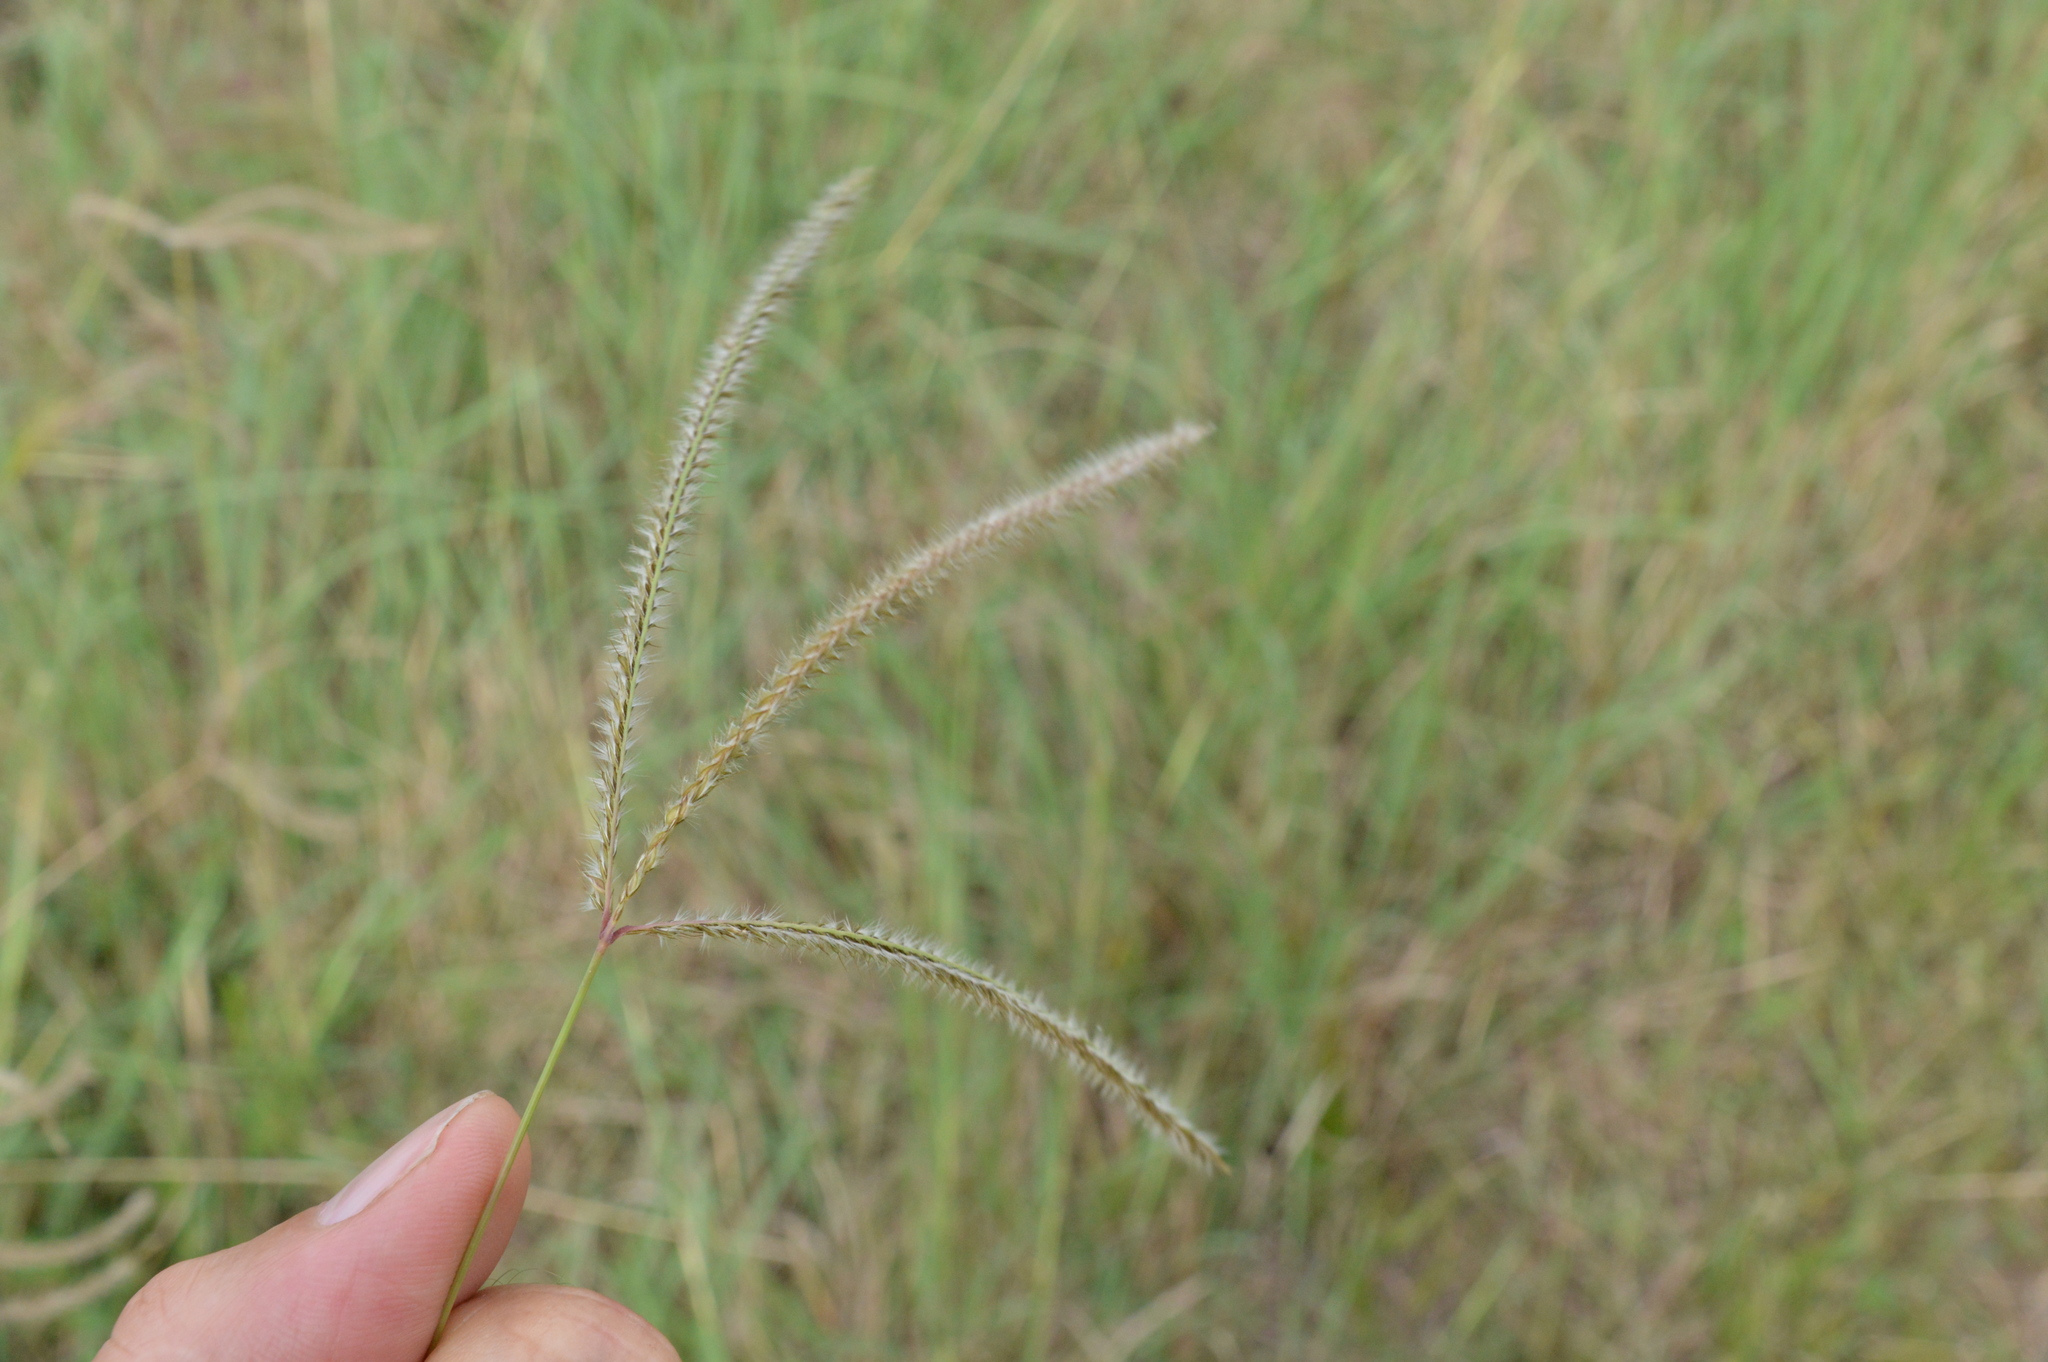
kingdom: Plantae
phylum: Tracheophyta
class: Liliopsida
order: Poales
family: Poaceae
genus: Stapfochloa
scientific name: Stapfochloa canterae
